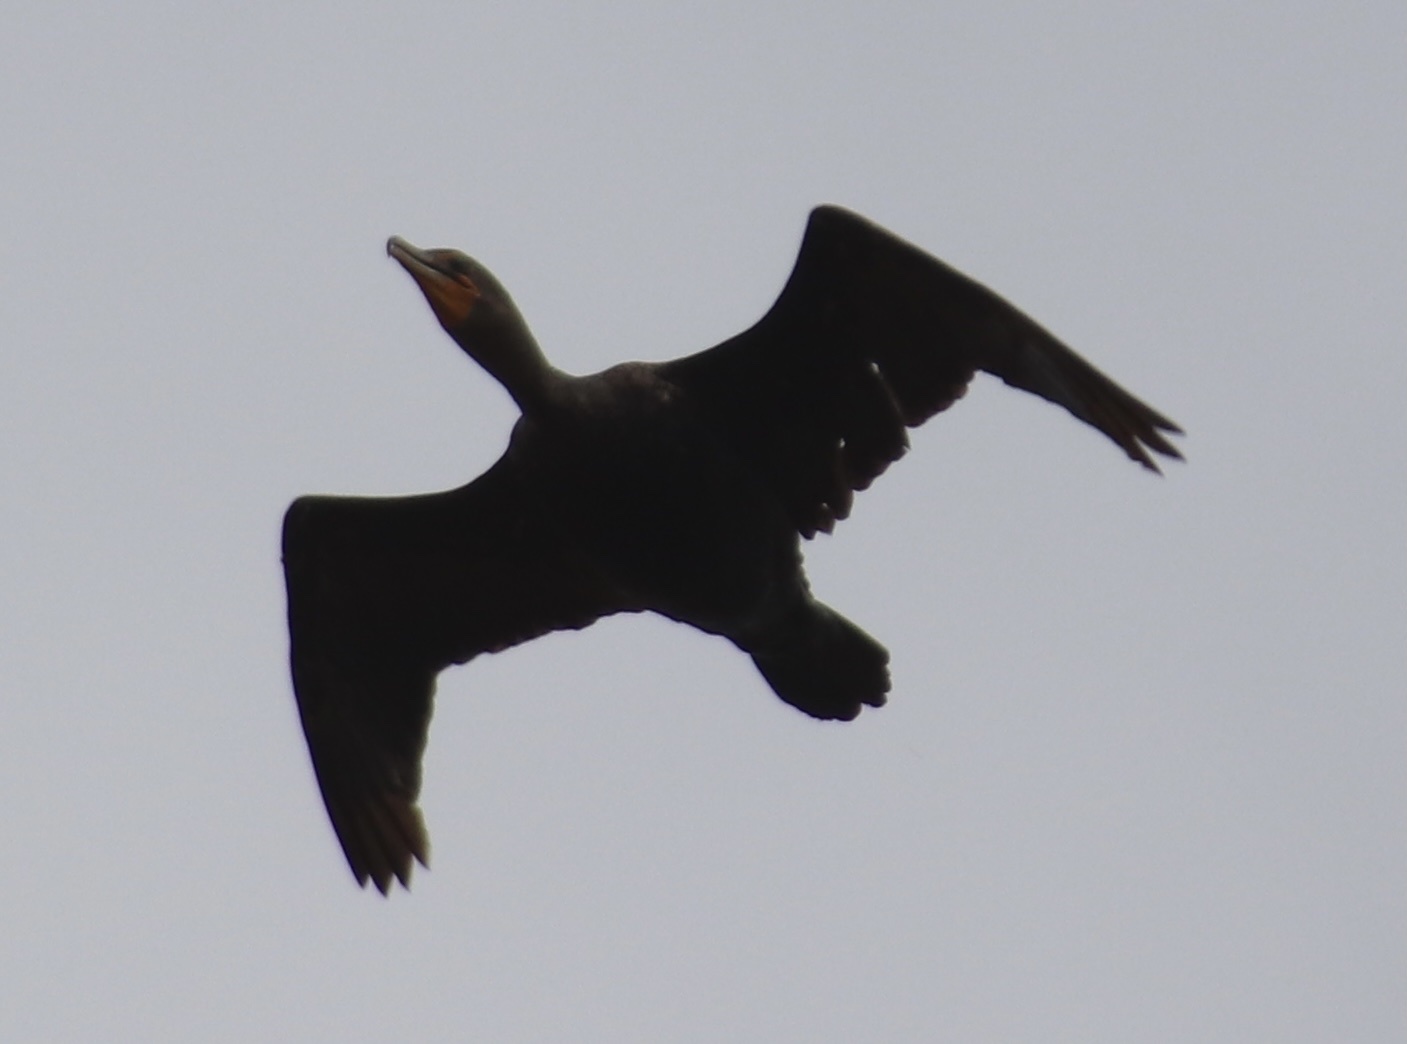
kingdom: Animalia
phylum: Chordata
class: Aves
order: Suliformes
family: Phalacrocoracidae
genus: Phalacrocorax
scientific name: Phalacrocorax auritus
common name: Double-crested cormorant
